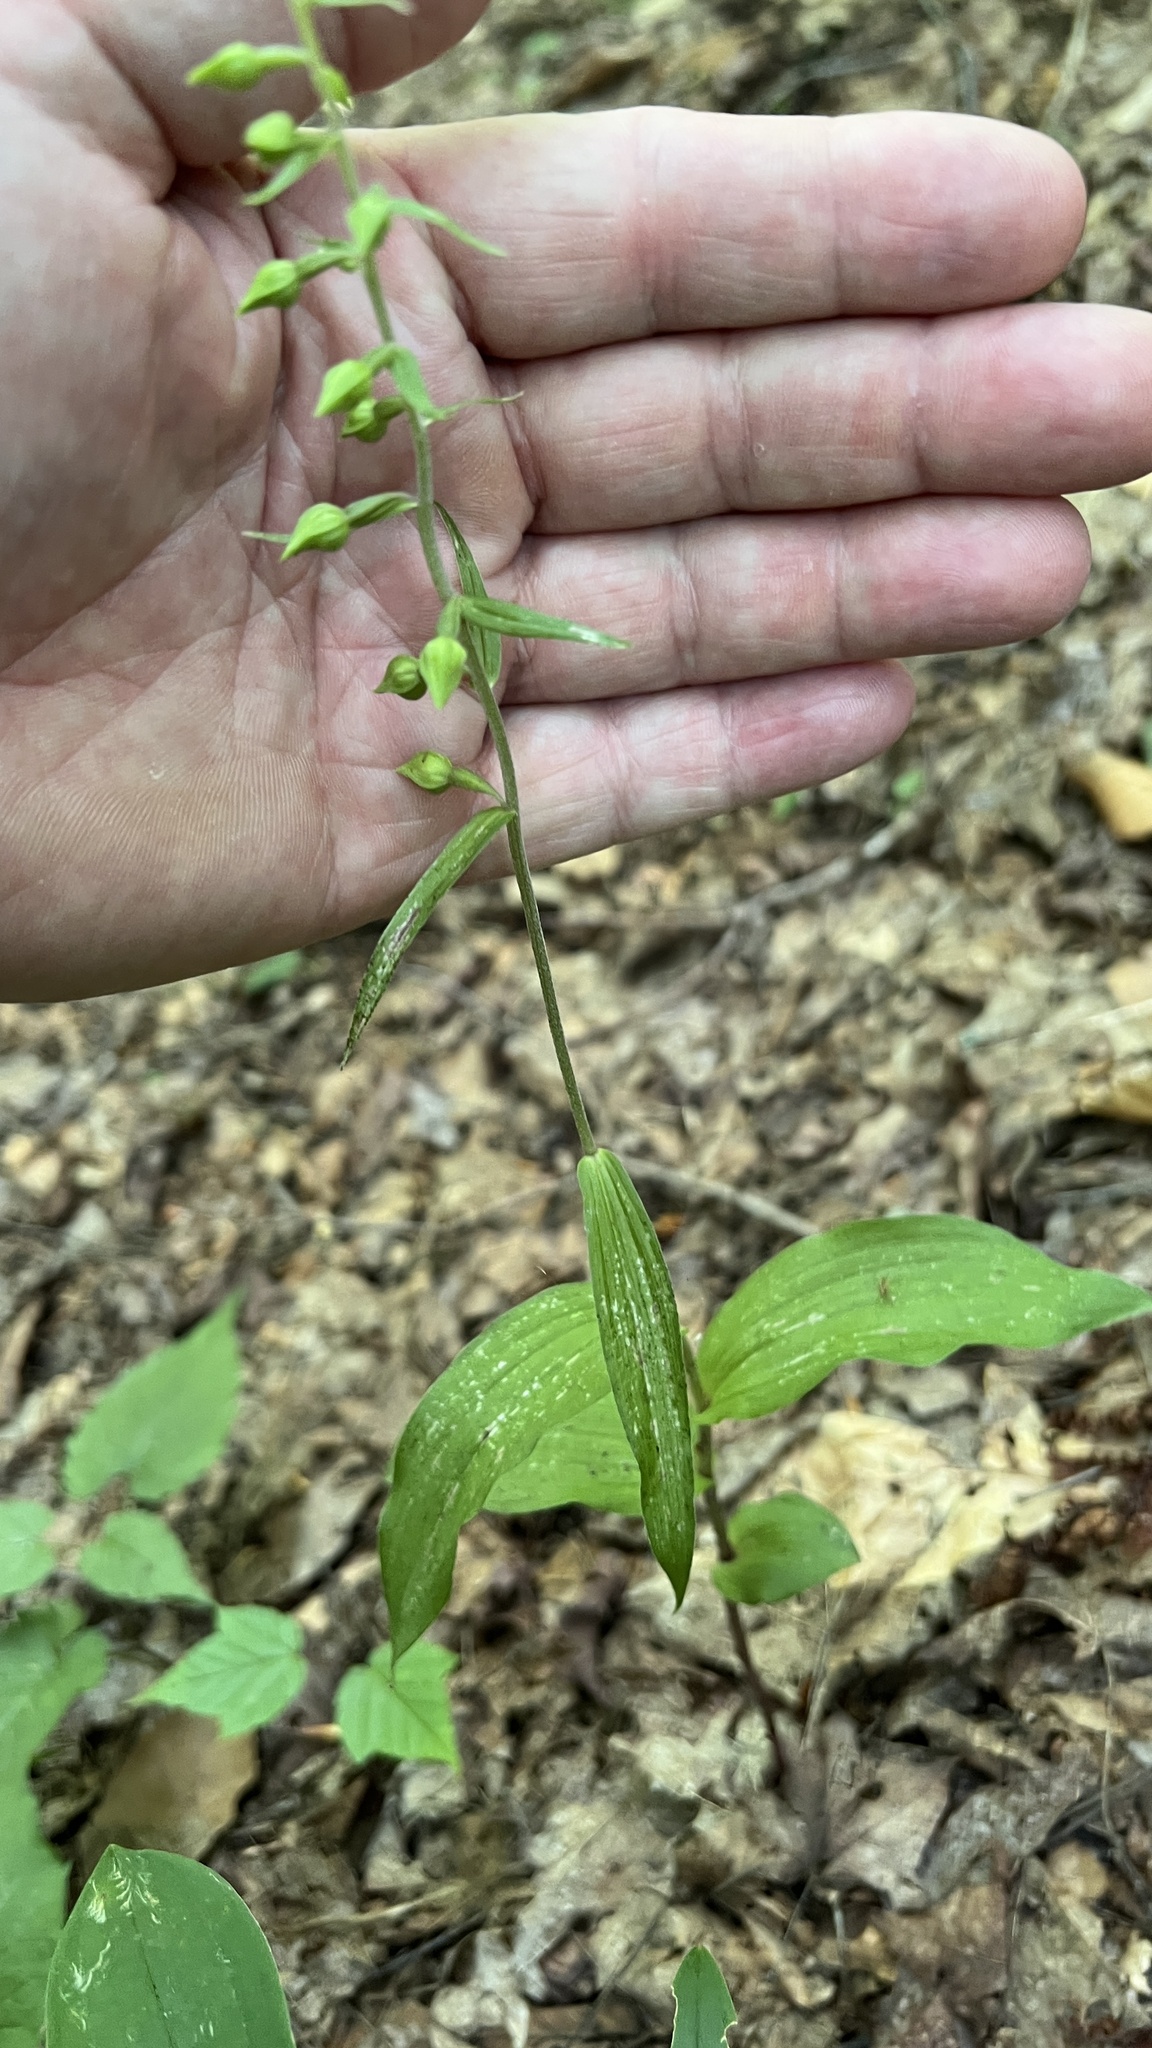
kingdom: Plantae
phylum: Tracheophyta
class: Liliopsida
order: Asparagales
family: Orchidaceae
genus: Epipactis
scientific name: Epipactis helleborine
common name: Broad-leaved helleborine
